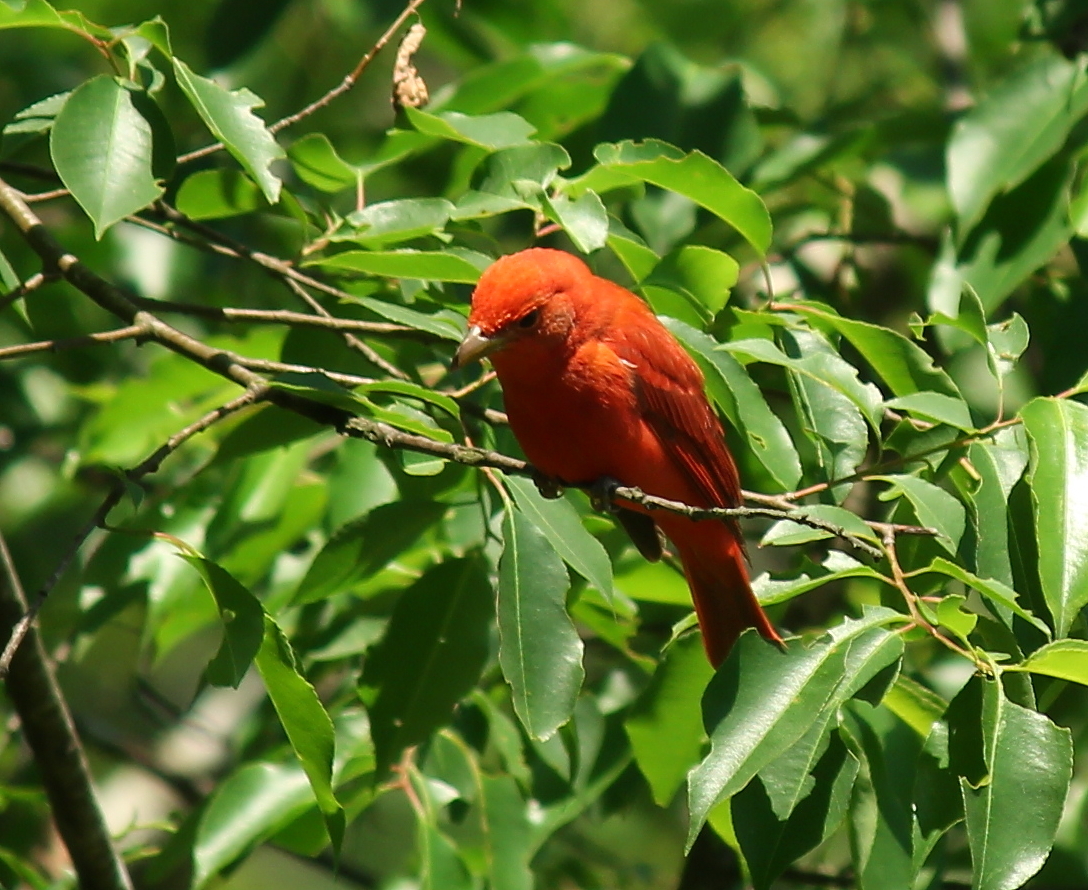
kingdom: Animalia
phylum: Chordata
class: Aves
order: Passeriformes
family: Cardinalidae
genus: Piranga
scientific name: Piranga rubra
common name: Summer tanager
